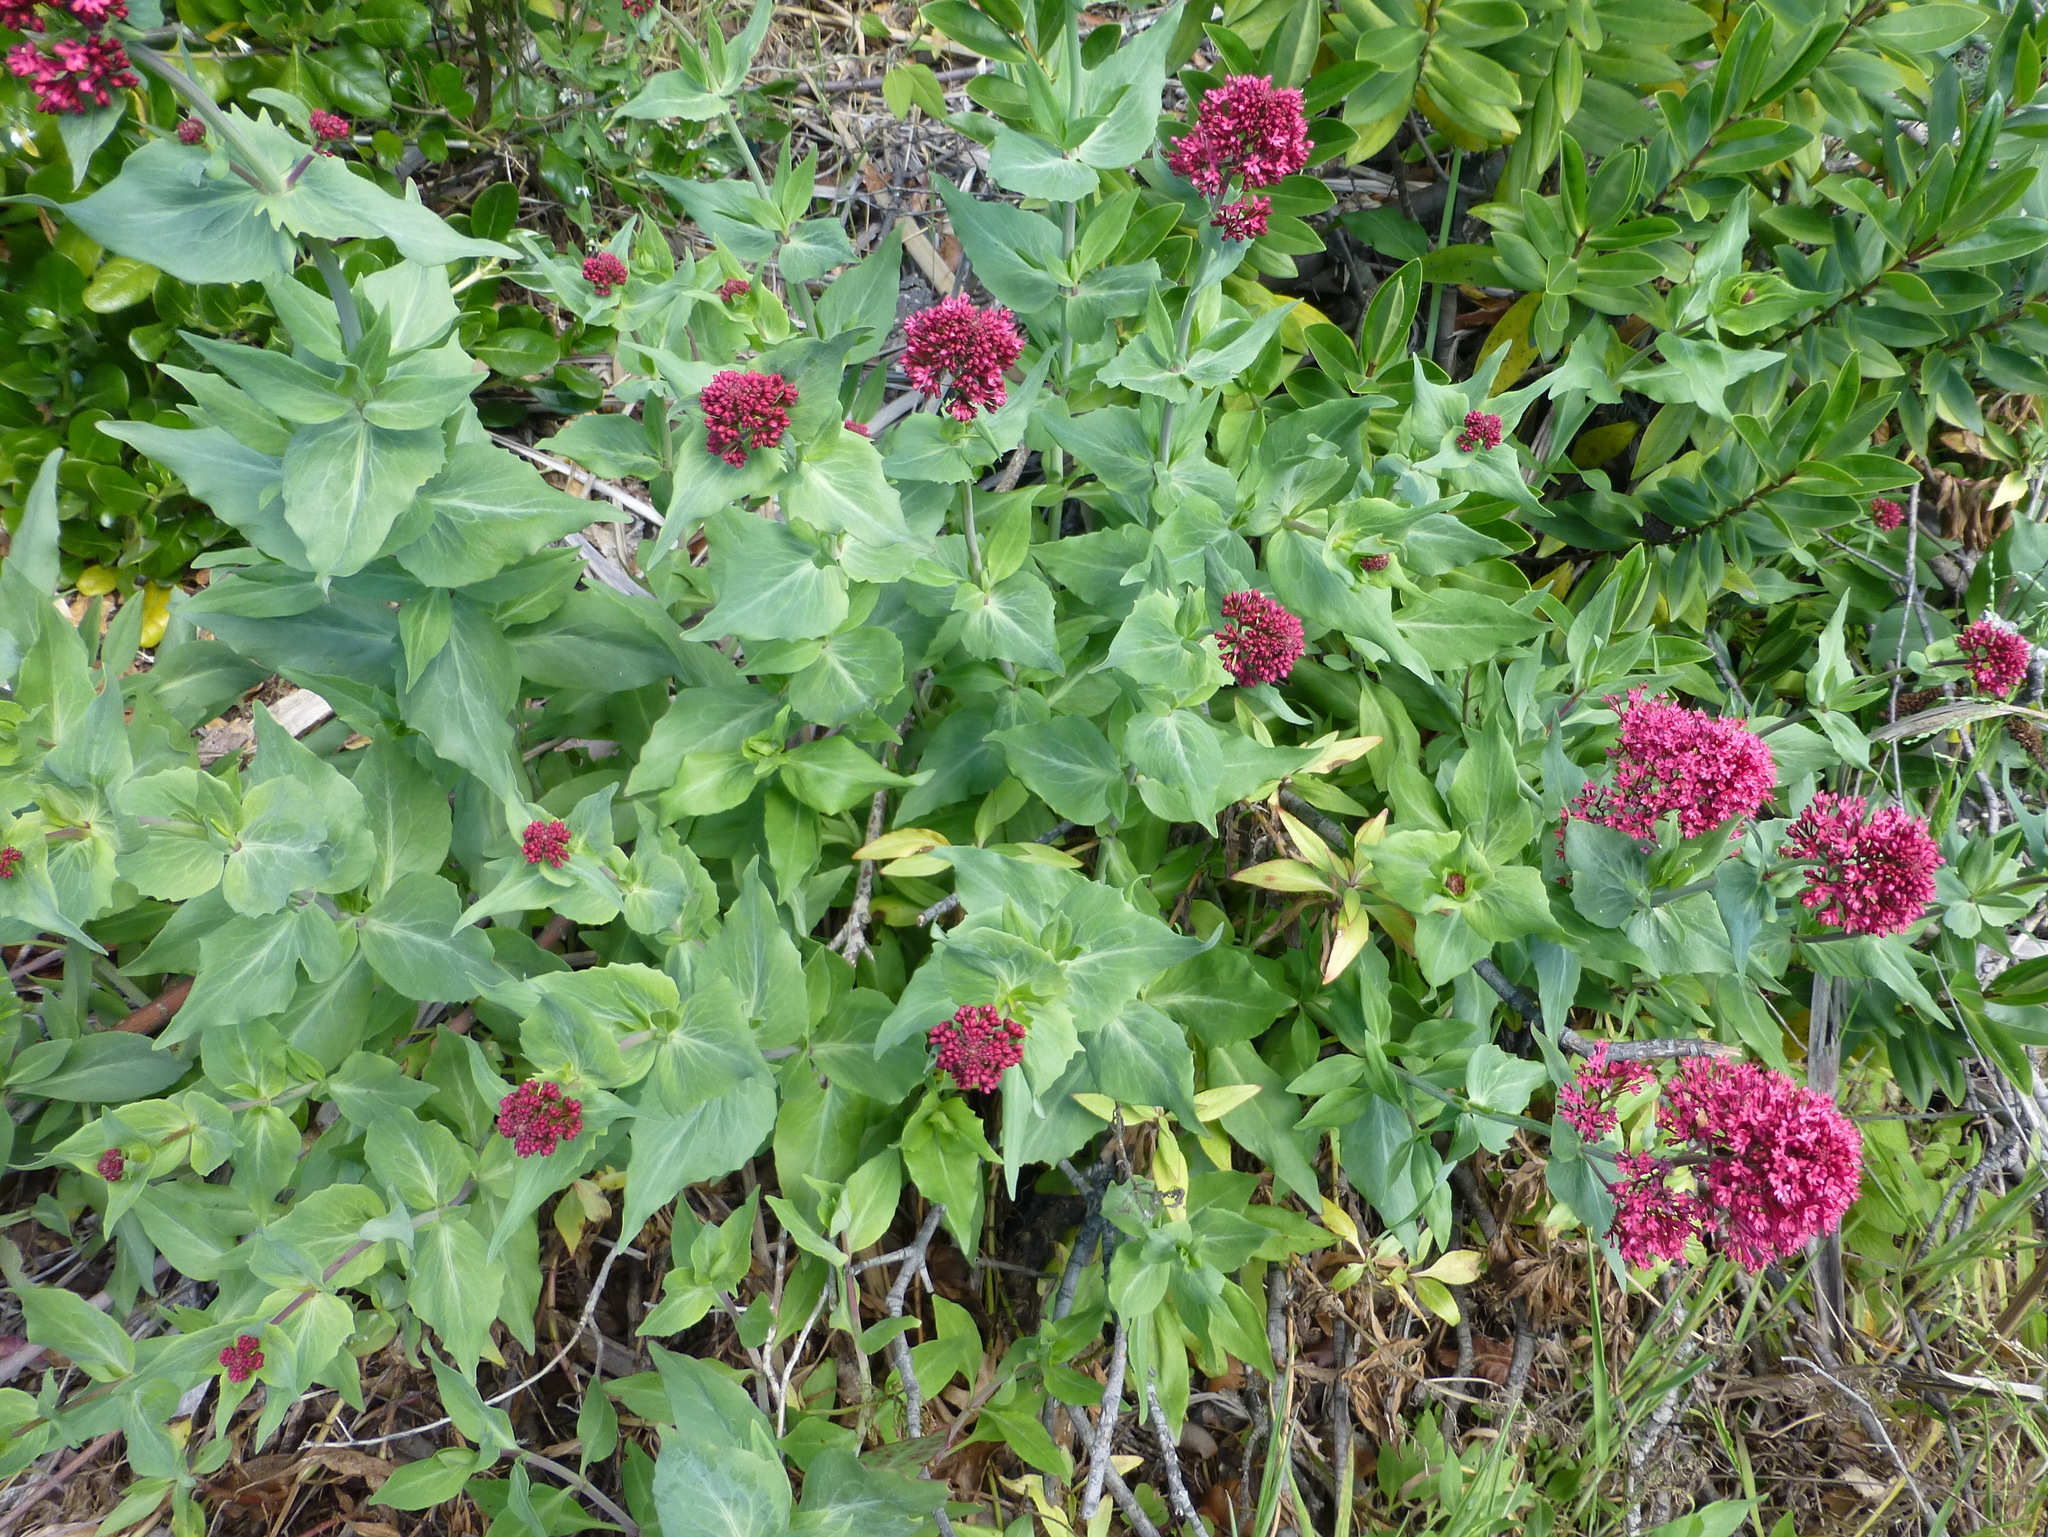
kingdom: Plantae
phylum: Tracheophyta
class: Magnoliopsida
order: Dipsacales
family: Caprifoliaceae
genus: Centranthus
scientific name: Centranthus ruber
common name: Red valerian
